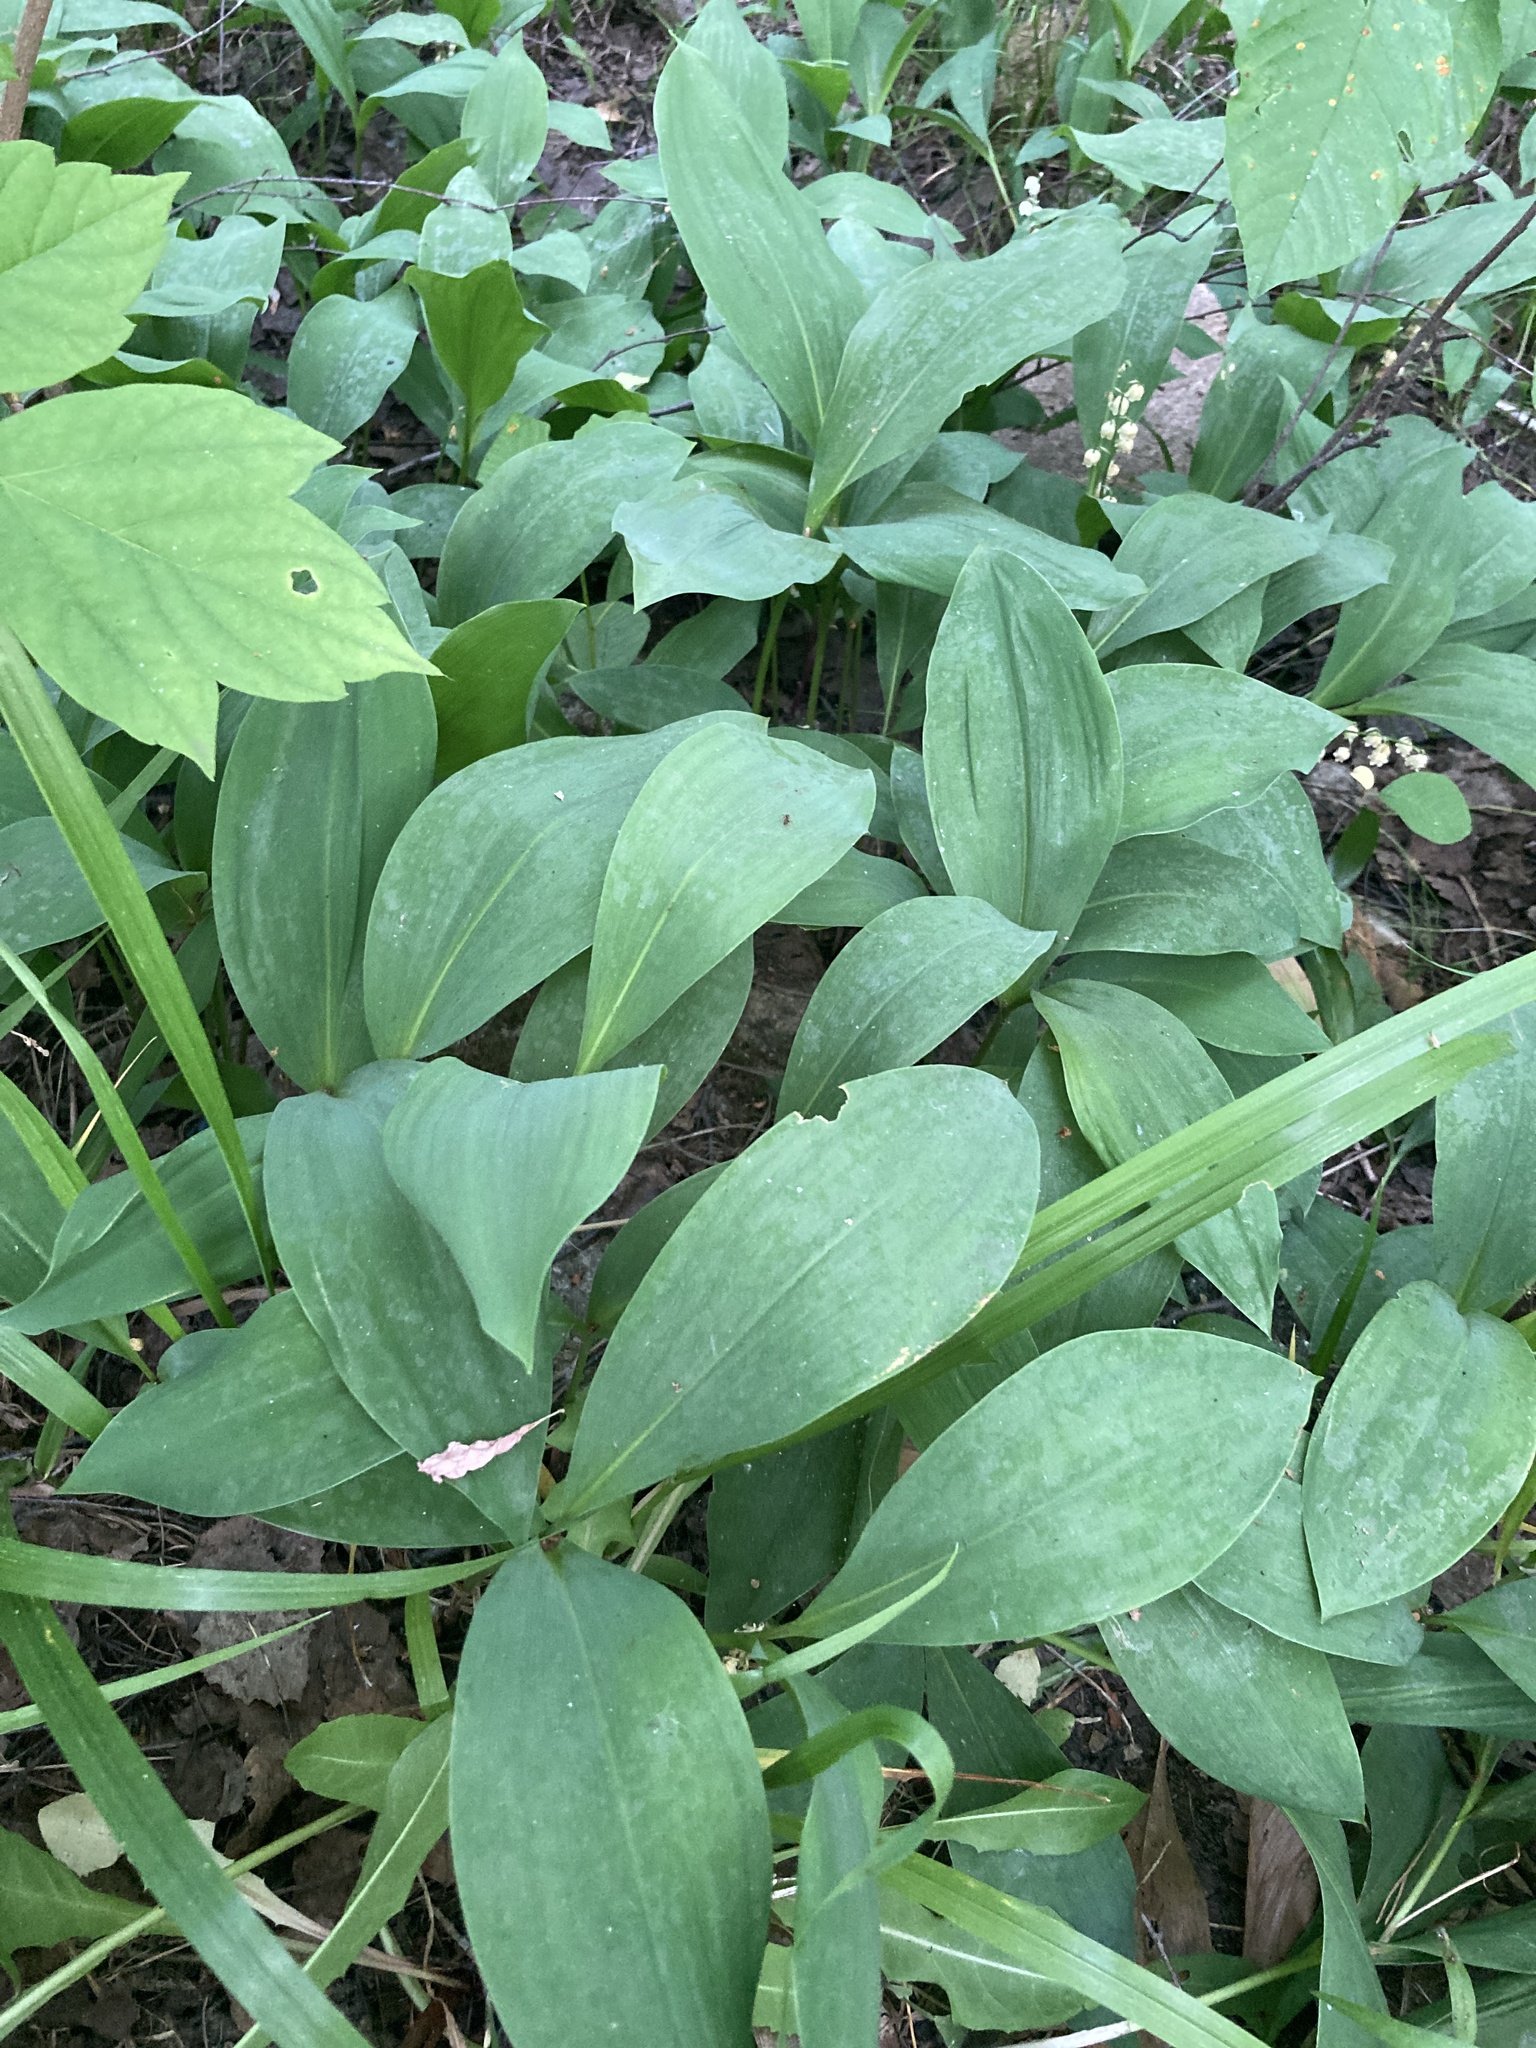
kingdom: Plantae
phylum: Tracheophyta
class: Liliopsida
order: Asparagales
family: Asparagaceae
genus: Convallaria
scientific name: Convallaria majalis
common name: Lily-of-the-valley
